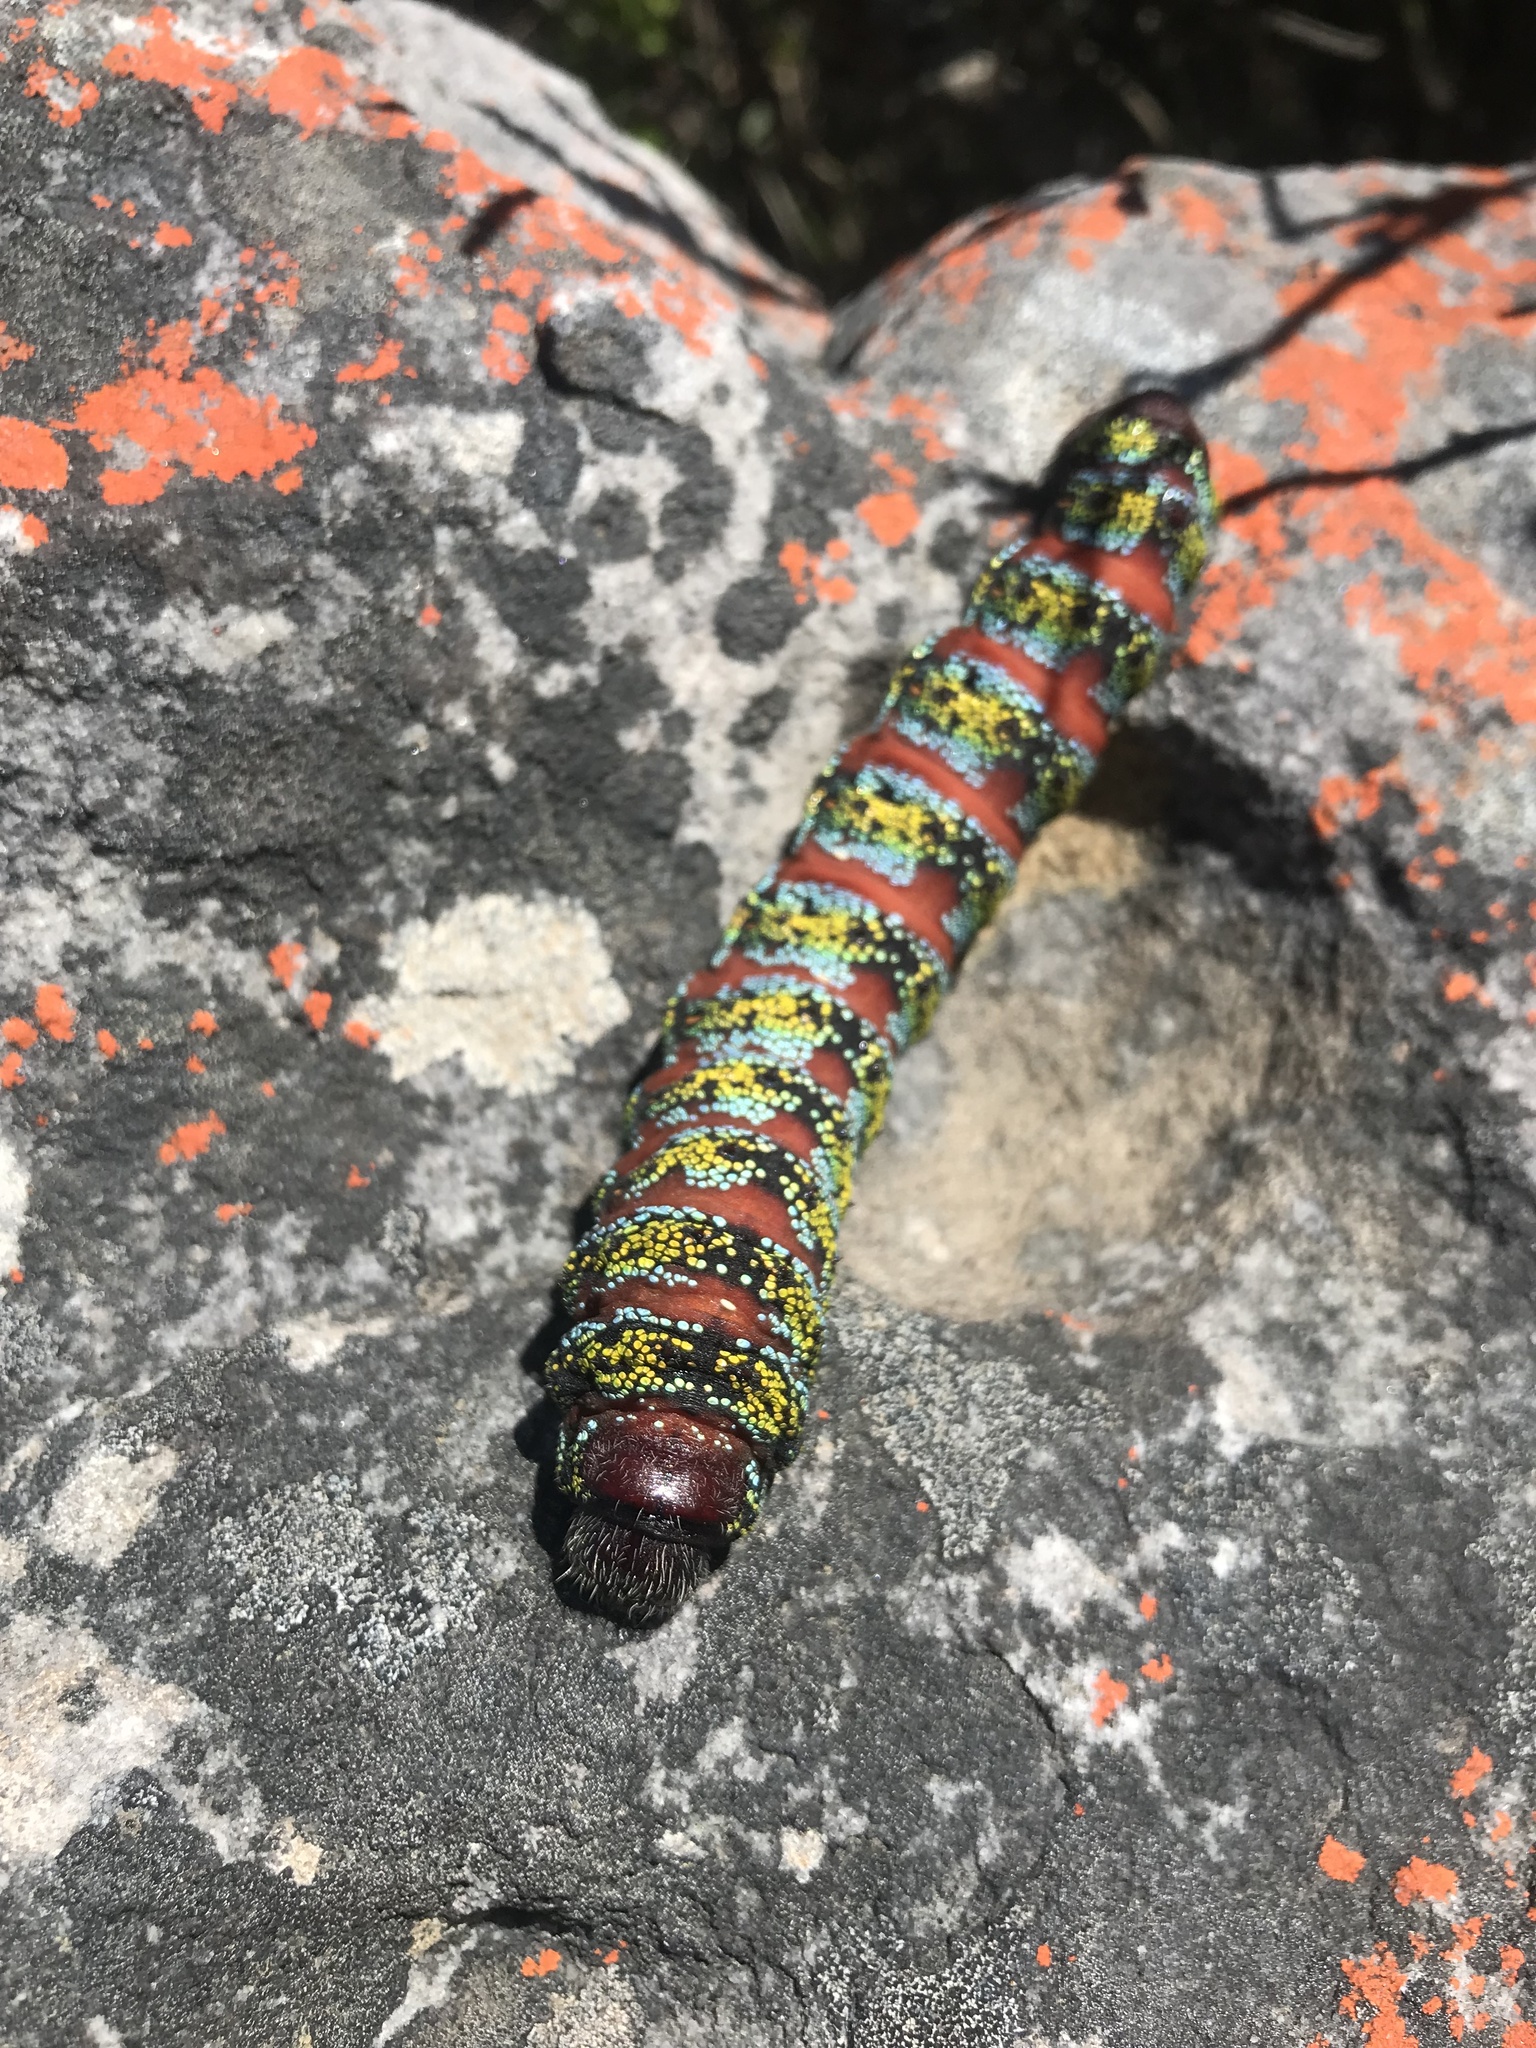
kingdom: Animalia
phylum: Arthropoda
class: Insecta
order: Lepidoptera
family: Saturniidae
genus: Nudaurelia
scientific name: Nudaurelia cytherea
